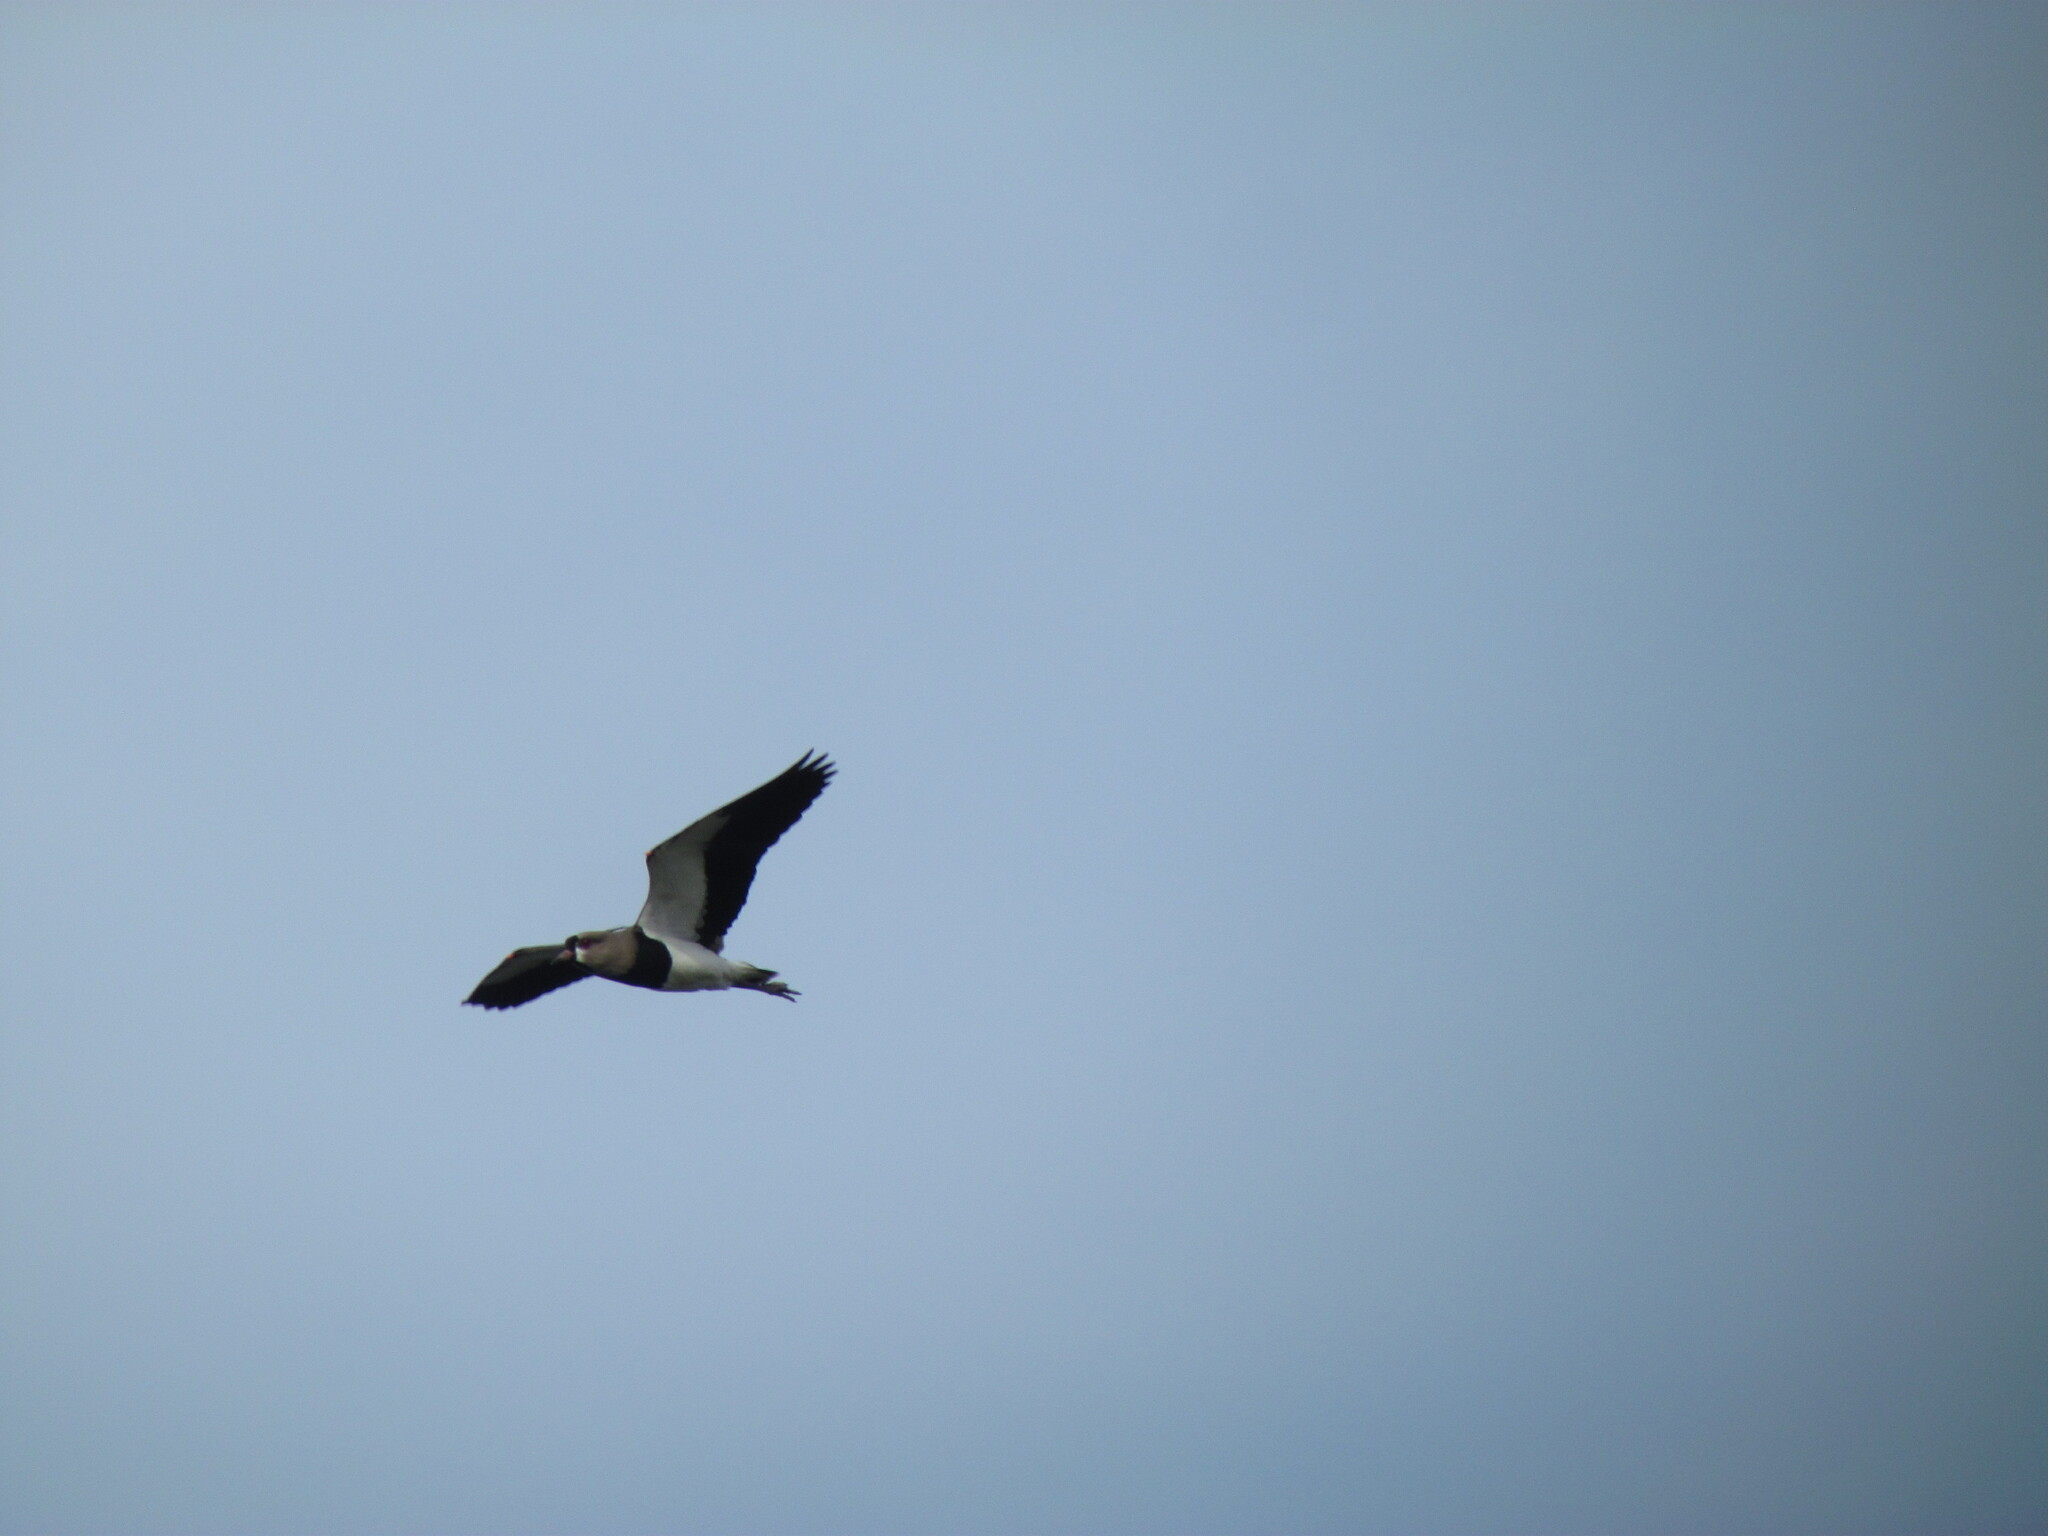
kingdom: Animalia
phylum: Chordata
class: Aves
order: Charadriiformes
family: Charadriidae
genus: Vanellus
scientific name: Vanellus chilensis
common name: Southern lapwing
